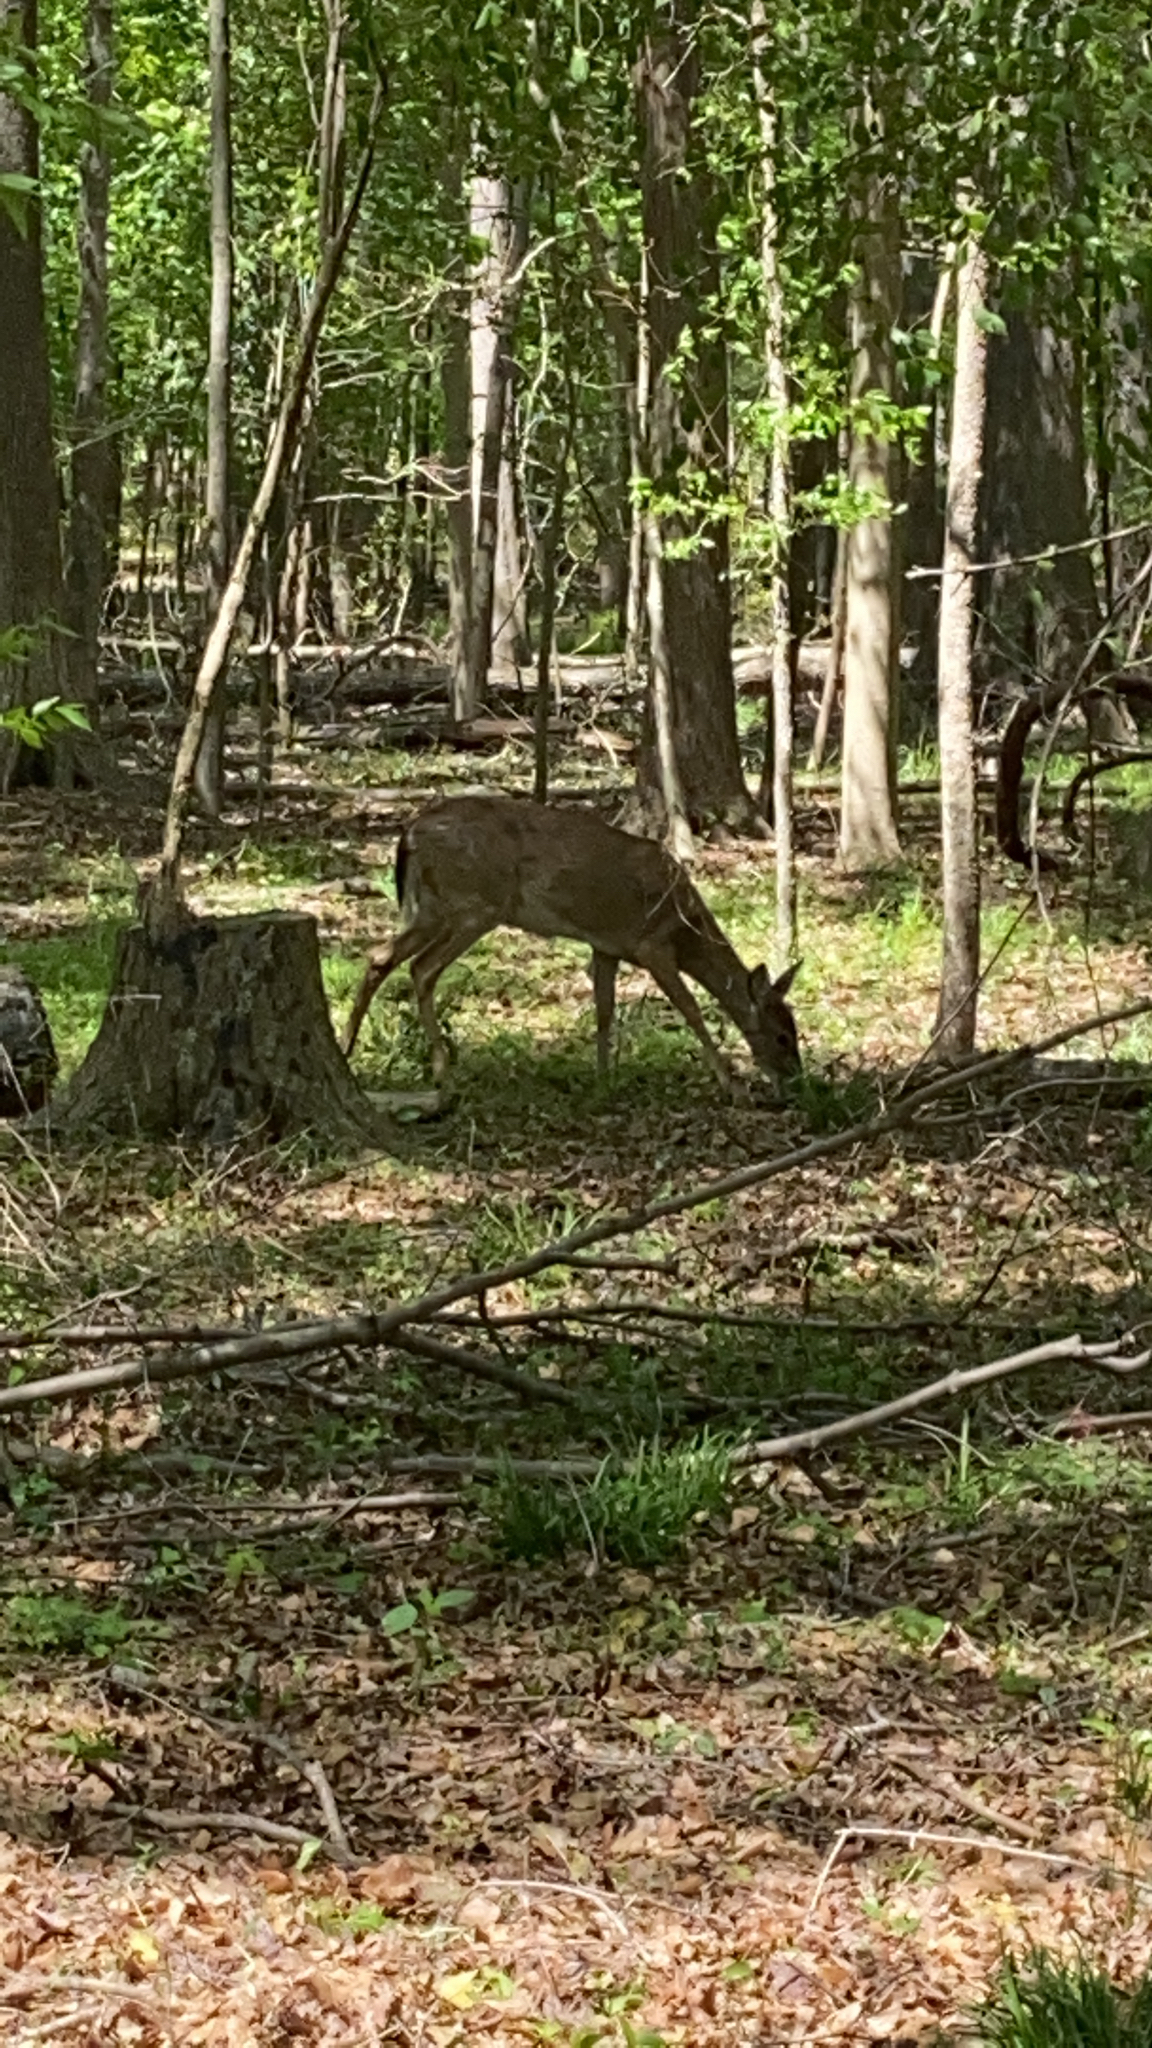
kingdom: Animalia
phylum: Chordata
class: Mammalia
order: Artiodactyla
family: Cervidae
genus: Odocoileus
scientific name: Odocoileus virginianus
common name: White-tailed deer
